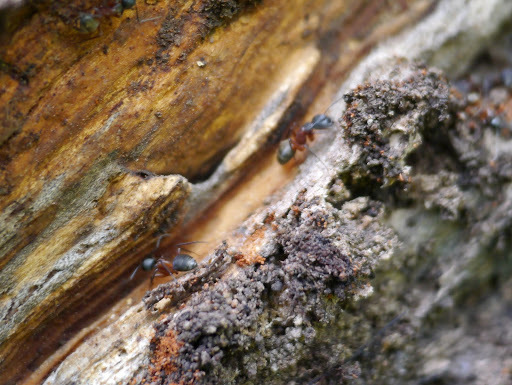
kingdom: Animalia
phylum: Arthropoda
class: Insecta
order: Hymenoptera
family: Formicidae
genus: Camponotus
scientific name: Camponotus chromaiodes
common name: Red carpenter ant
